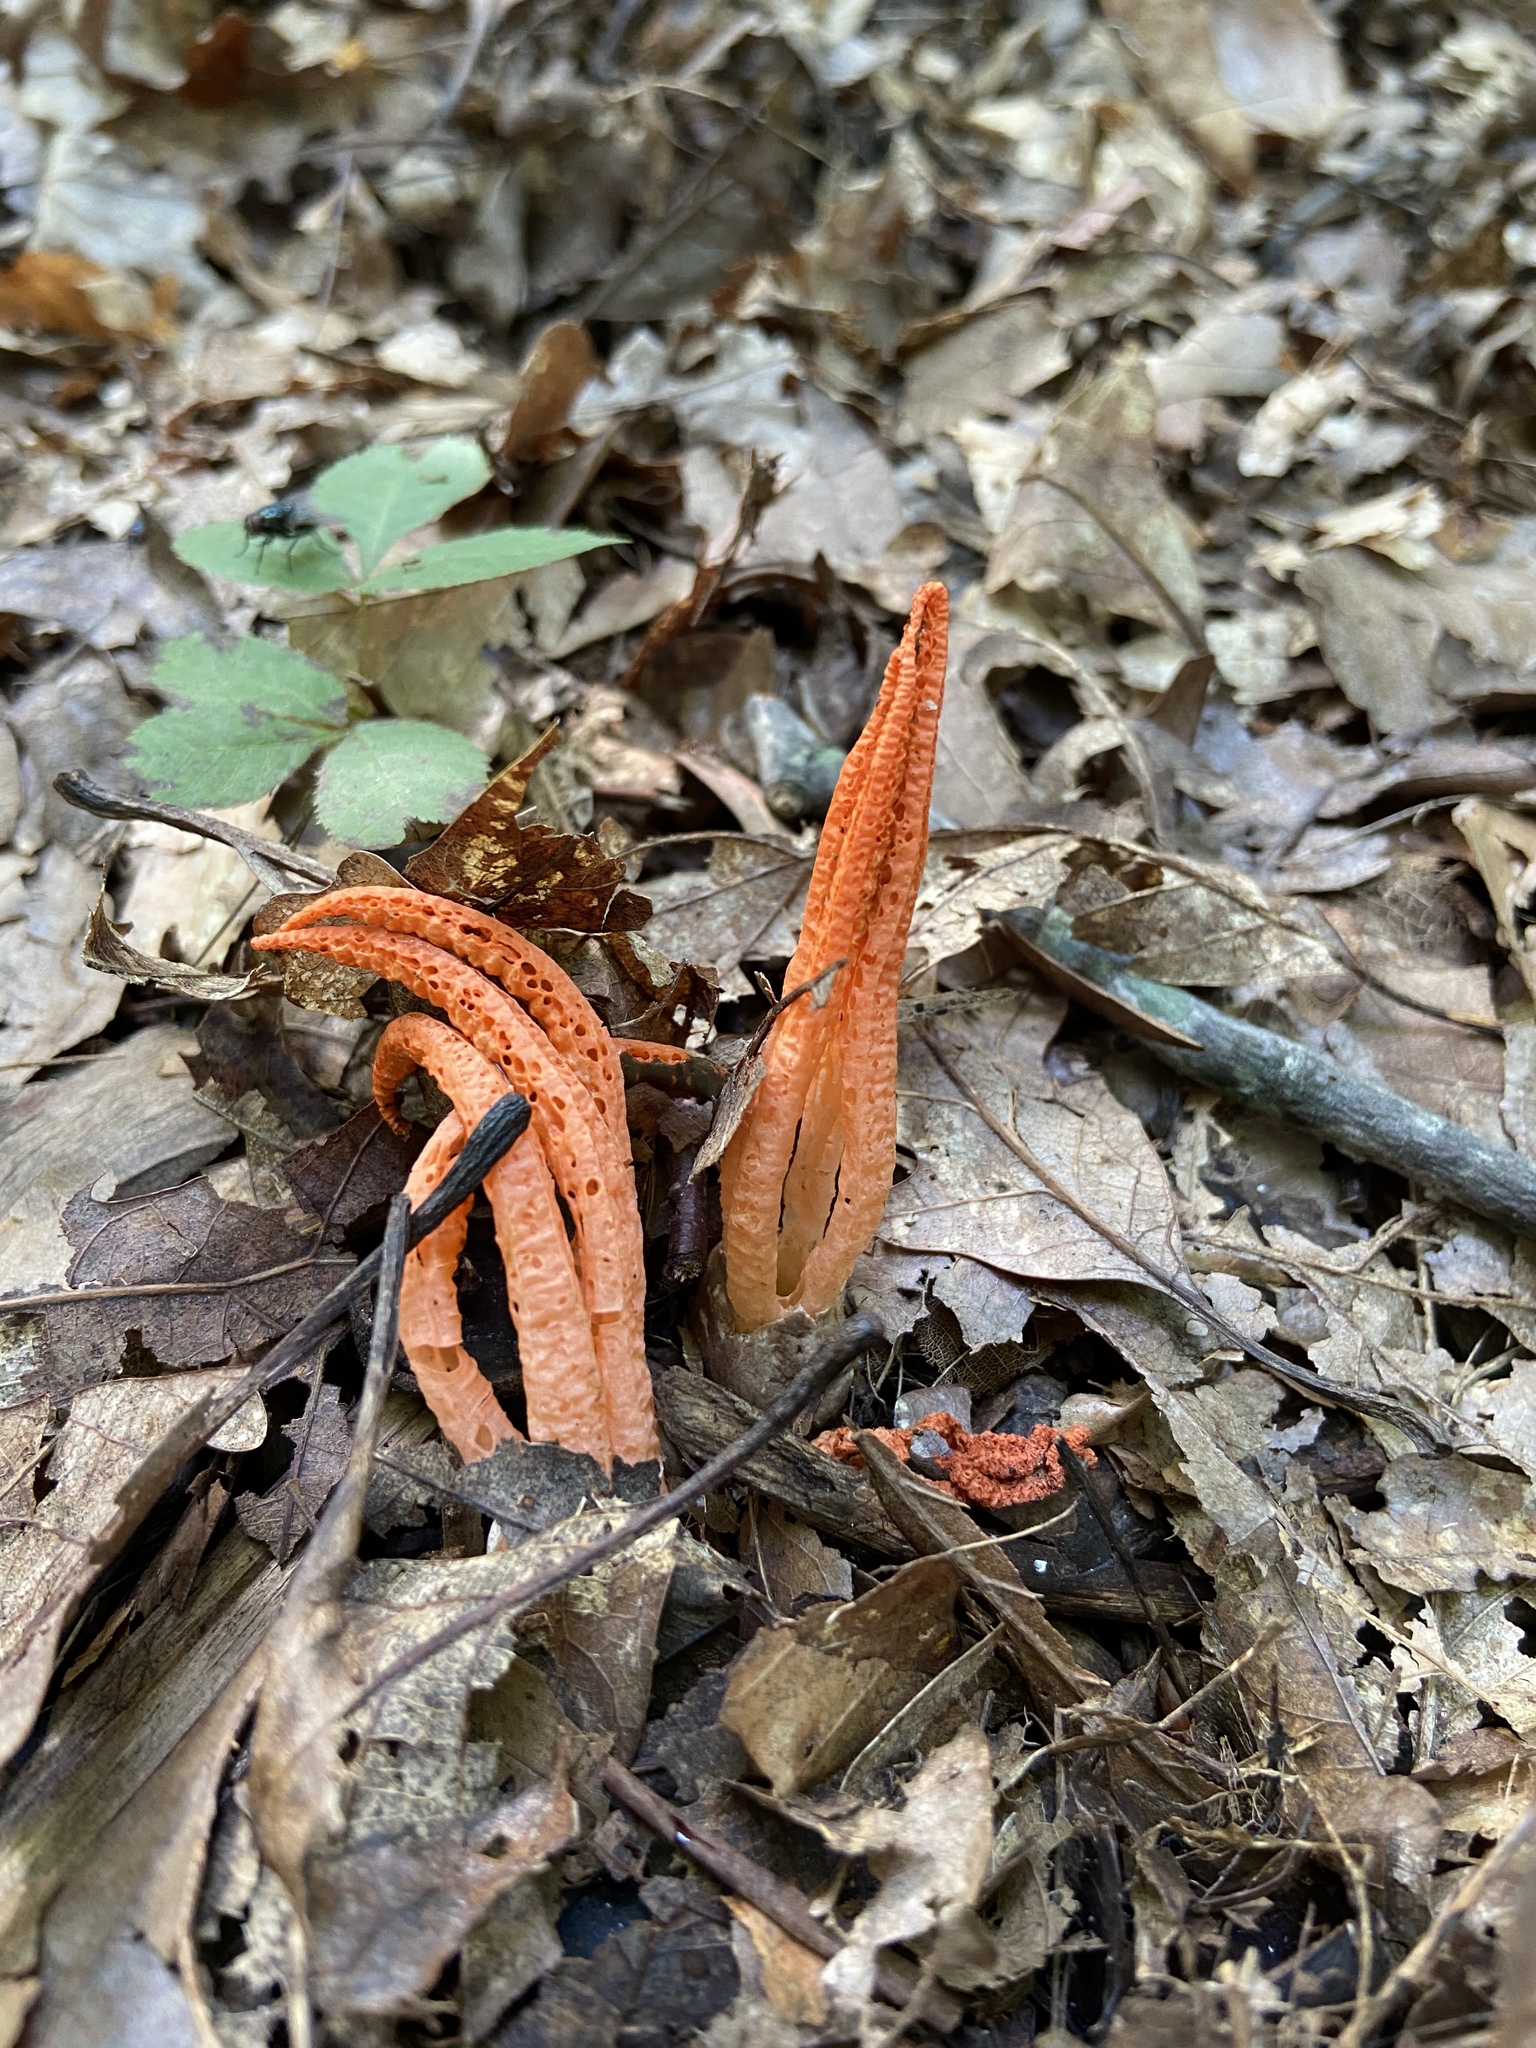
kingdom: Fungi
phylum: Basidiomycota
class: Agaricomycetes
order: Phallales
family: Phallaceae
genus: Pseudocolus
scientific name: Pseudocolus fusiformis
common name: Stinky squid
